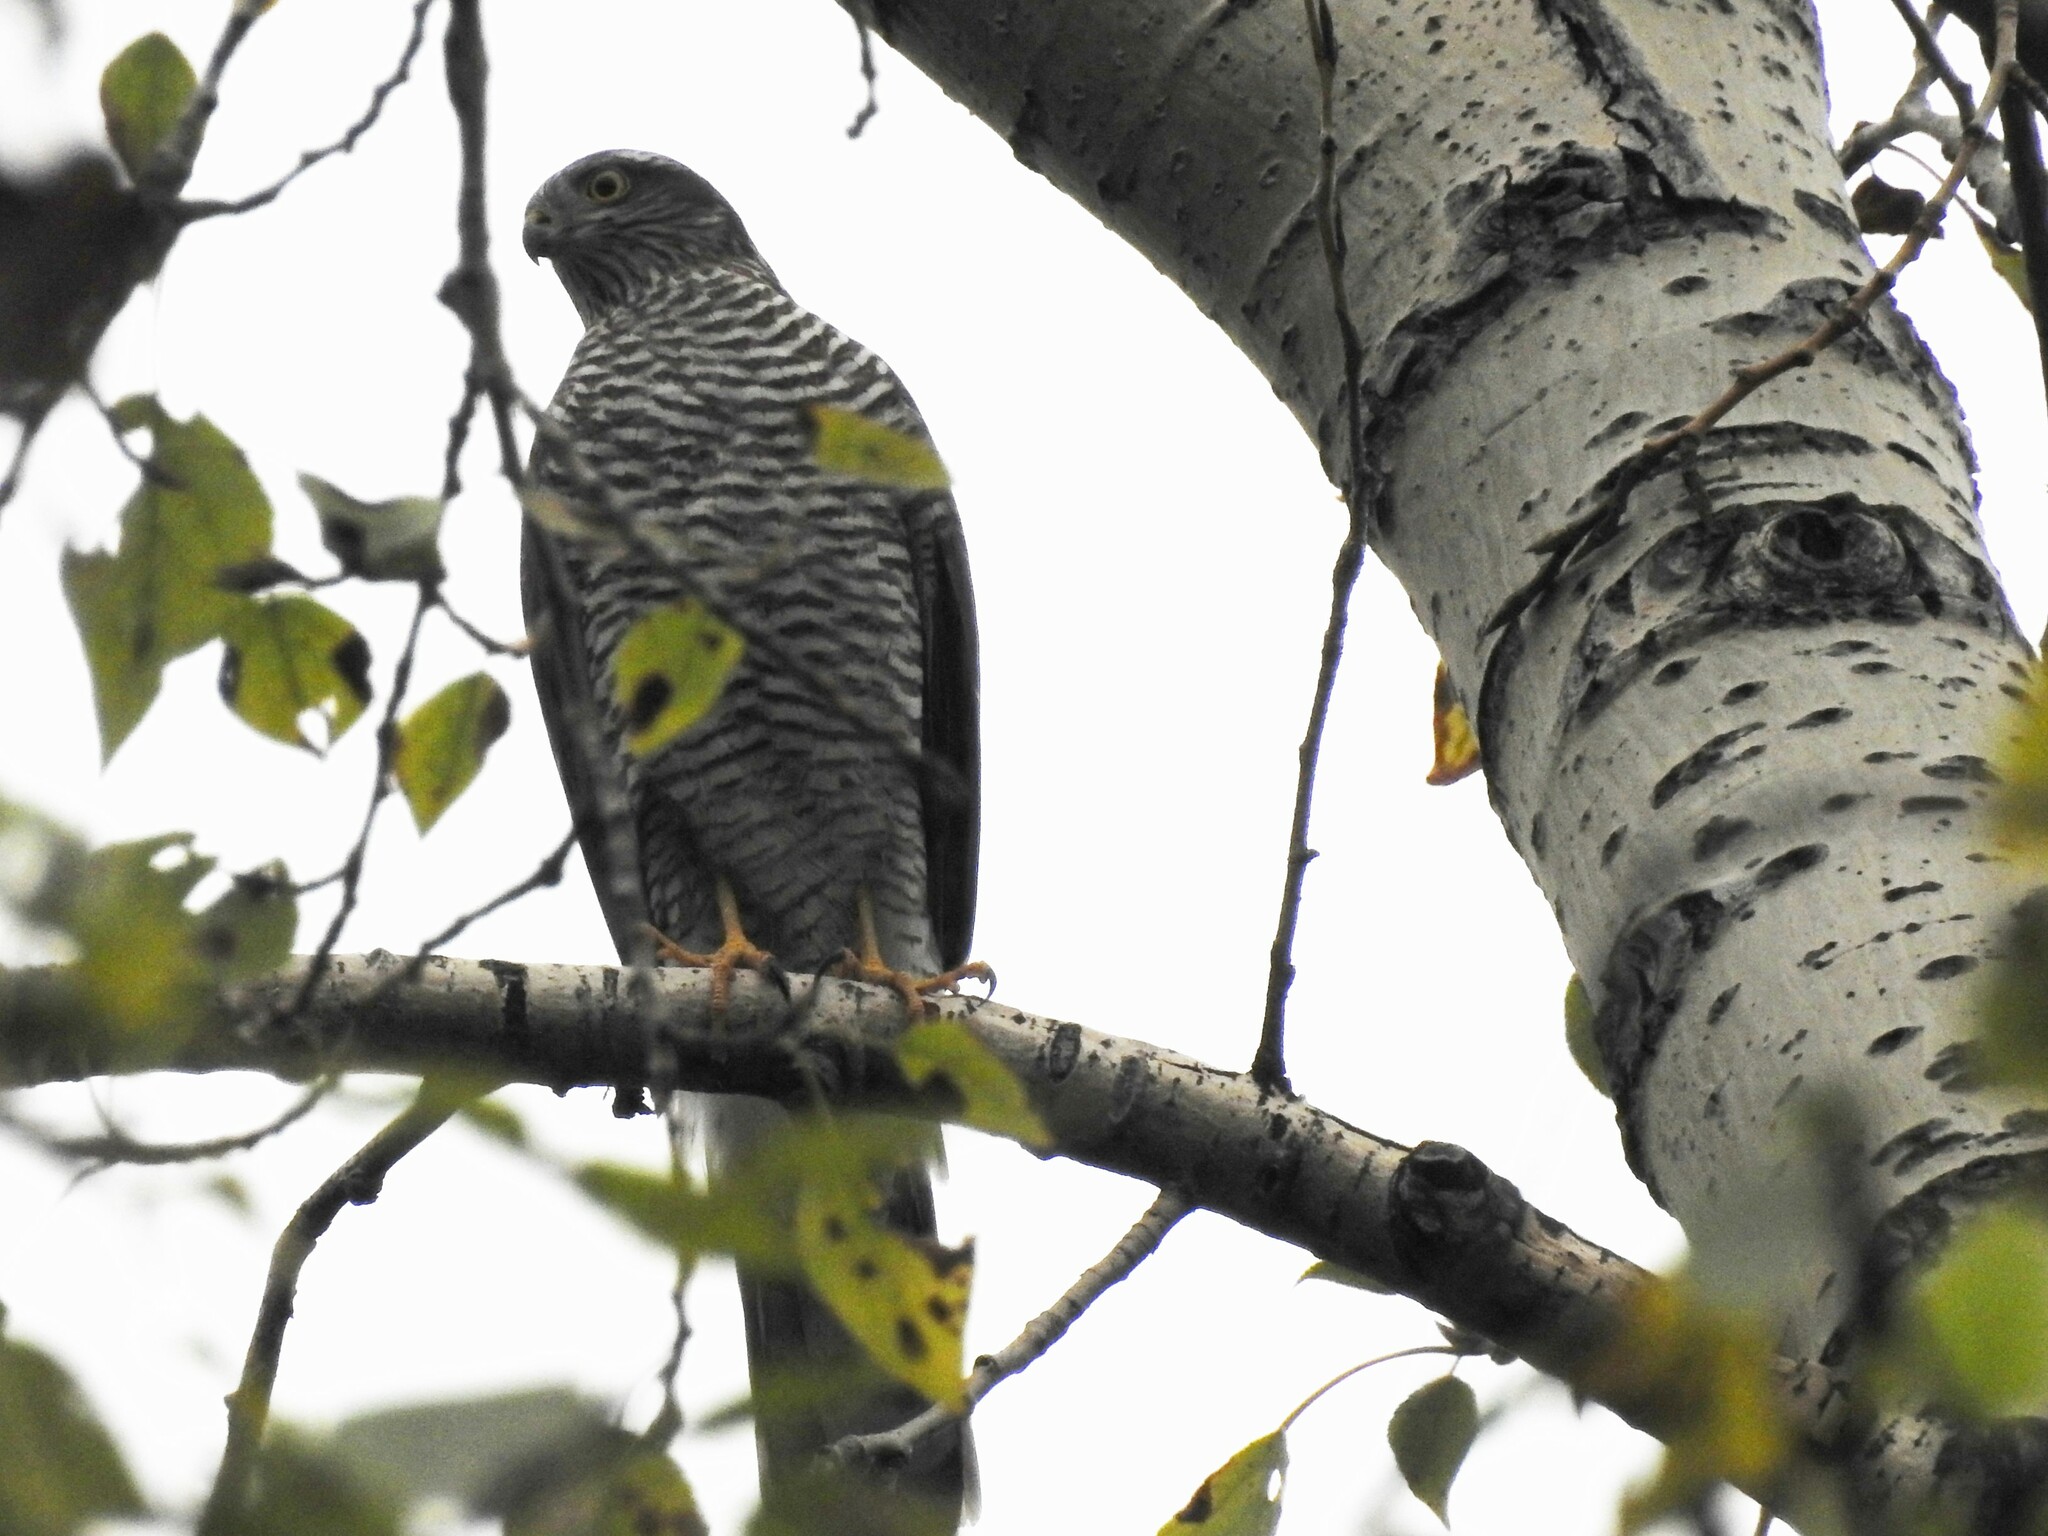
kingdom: Animalia
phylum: Chordata
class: Aves
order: Accipitriformes
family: Accipitridae
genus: Accipiter
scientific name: Accipiter nisus
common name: Eurasian sparrowhawk
